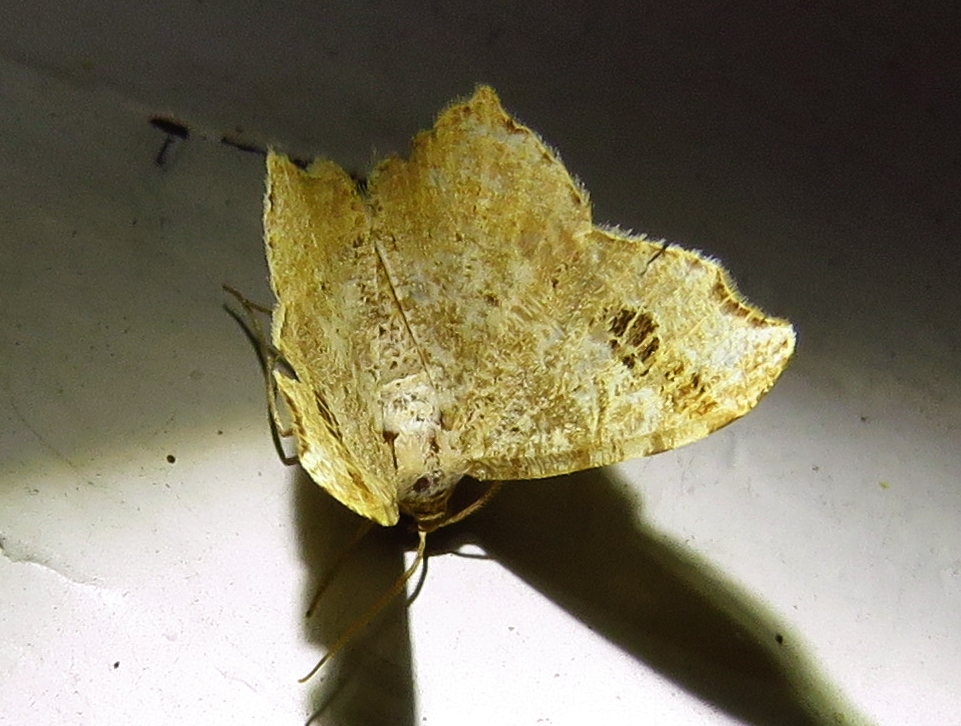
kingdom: Animalia
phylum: Arthropoda
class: Insecta
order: Lepidoptera
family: Geometridae
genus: Macaria
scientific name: Macaria aemulataria
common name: Common angle
